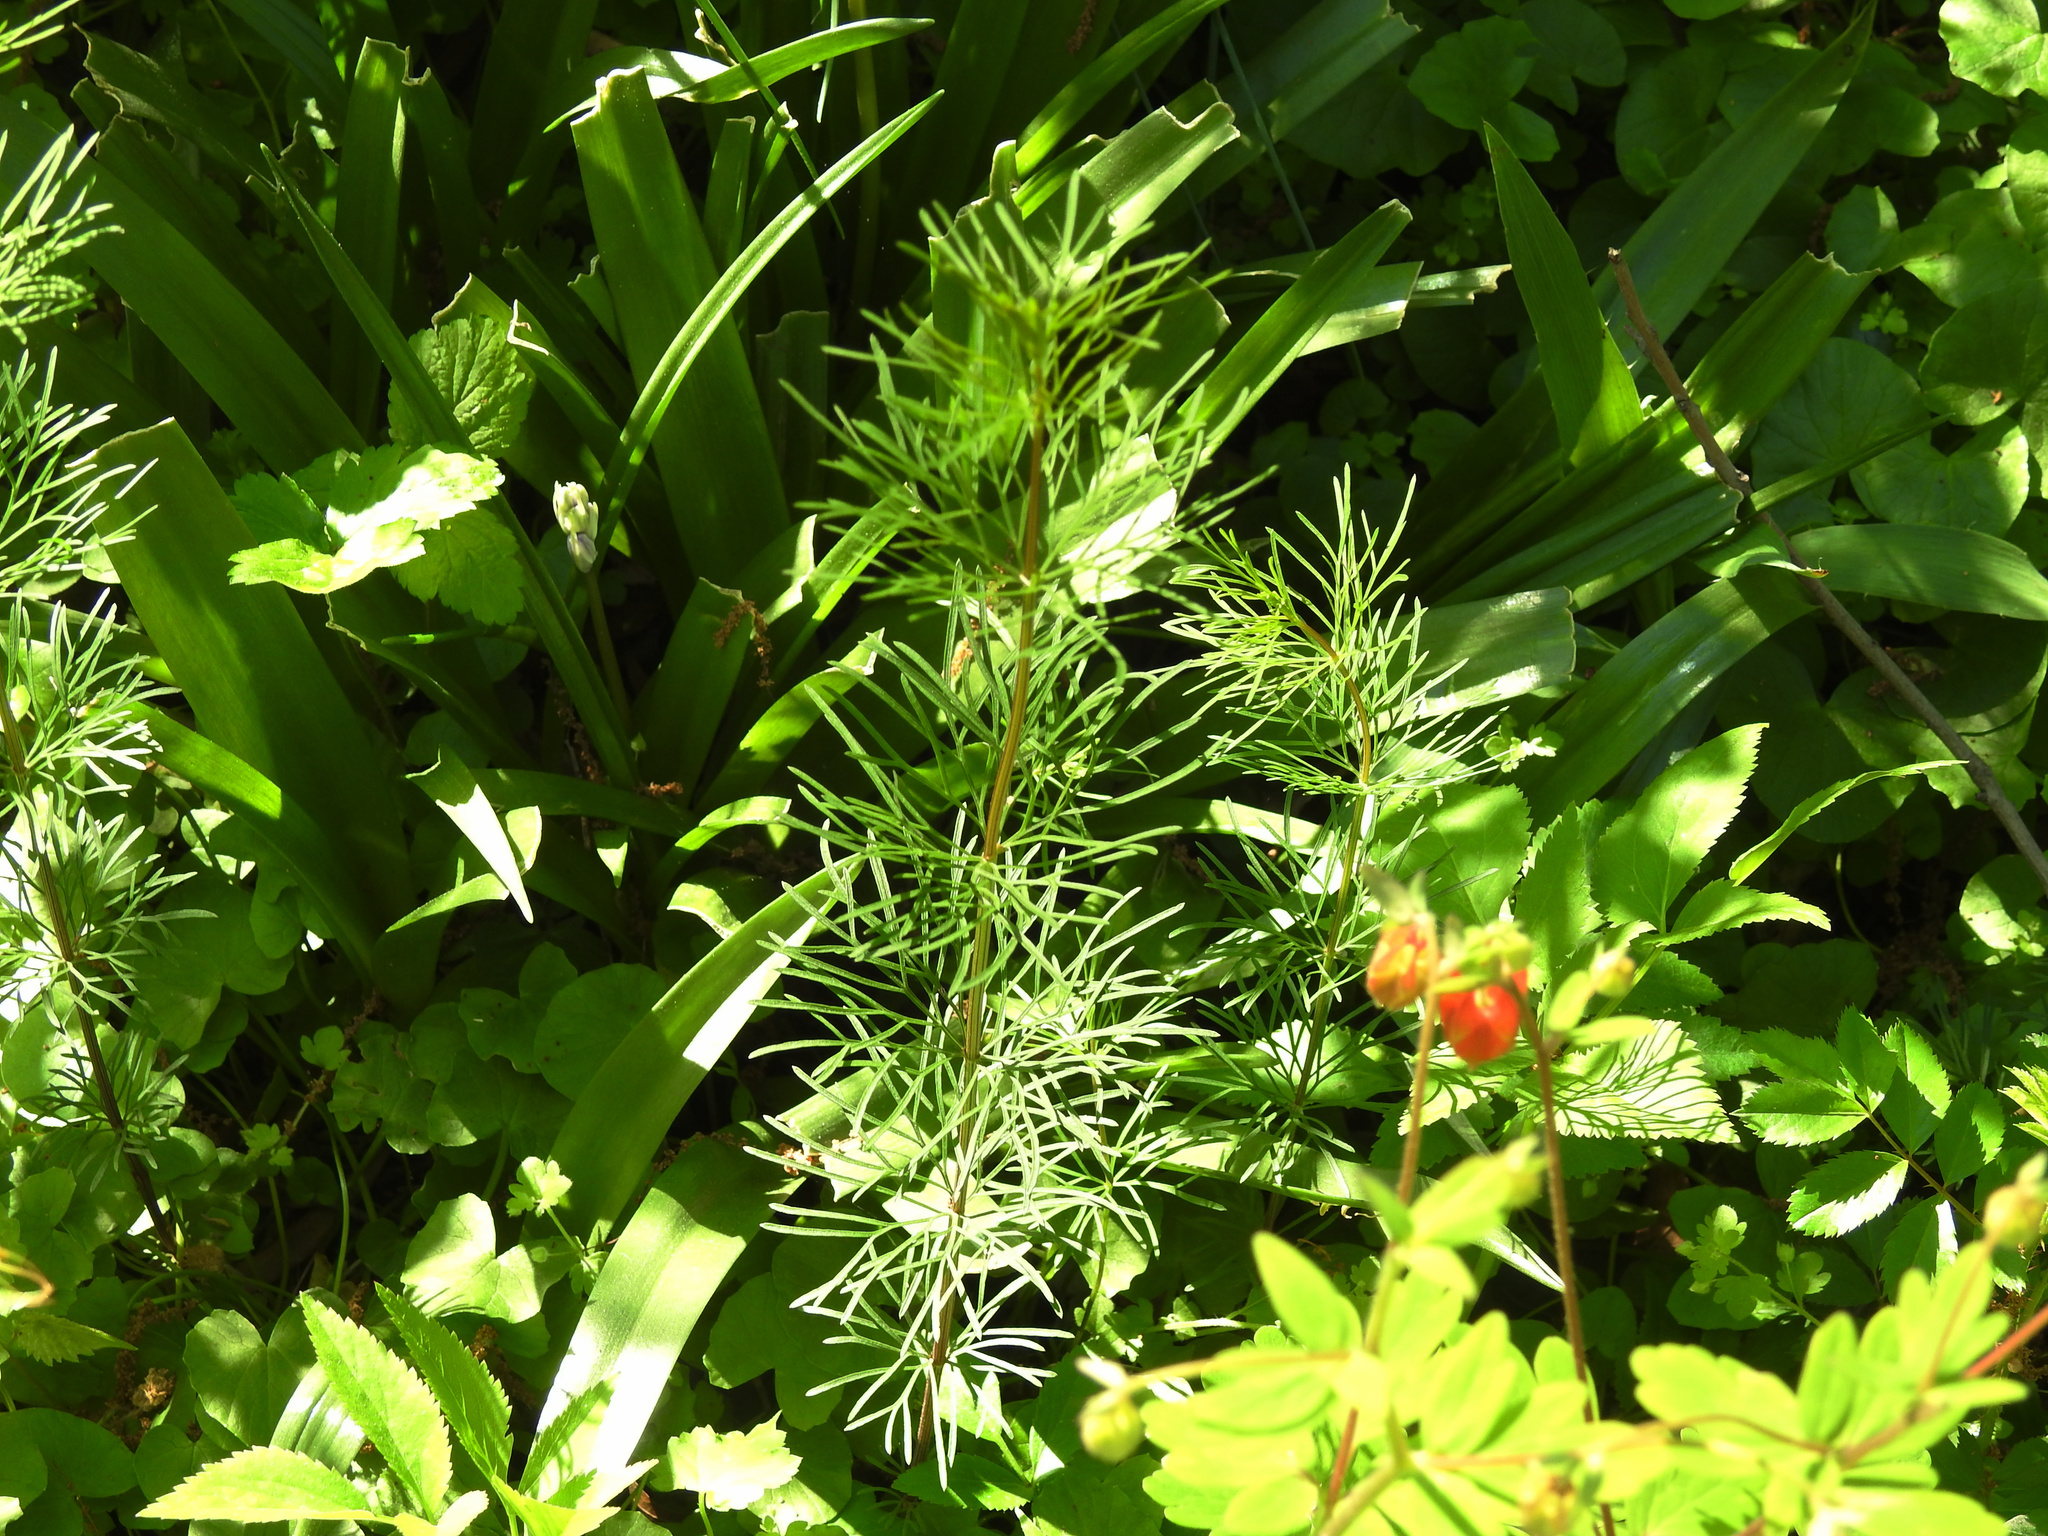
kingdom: Plantae
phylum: Tracheophyta
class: Magnoliopsida
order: Asterales
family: Asteraceae
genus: Coreopsis
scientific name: Coreopsis verticillata
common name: Whorled tickseed
